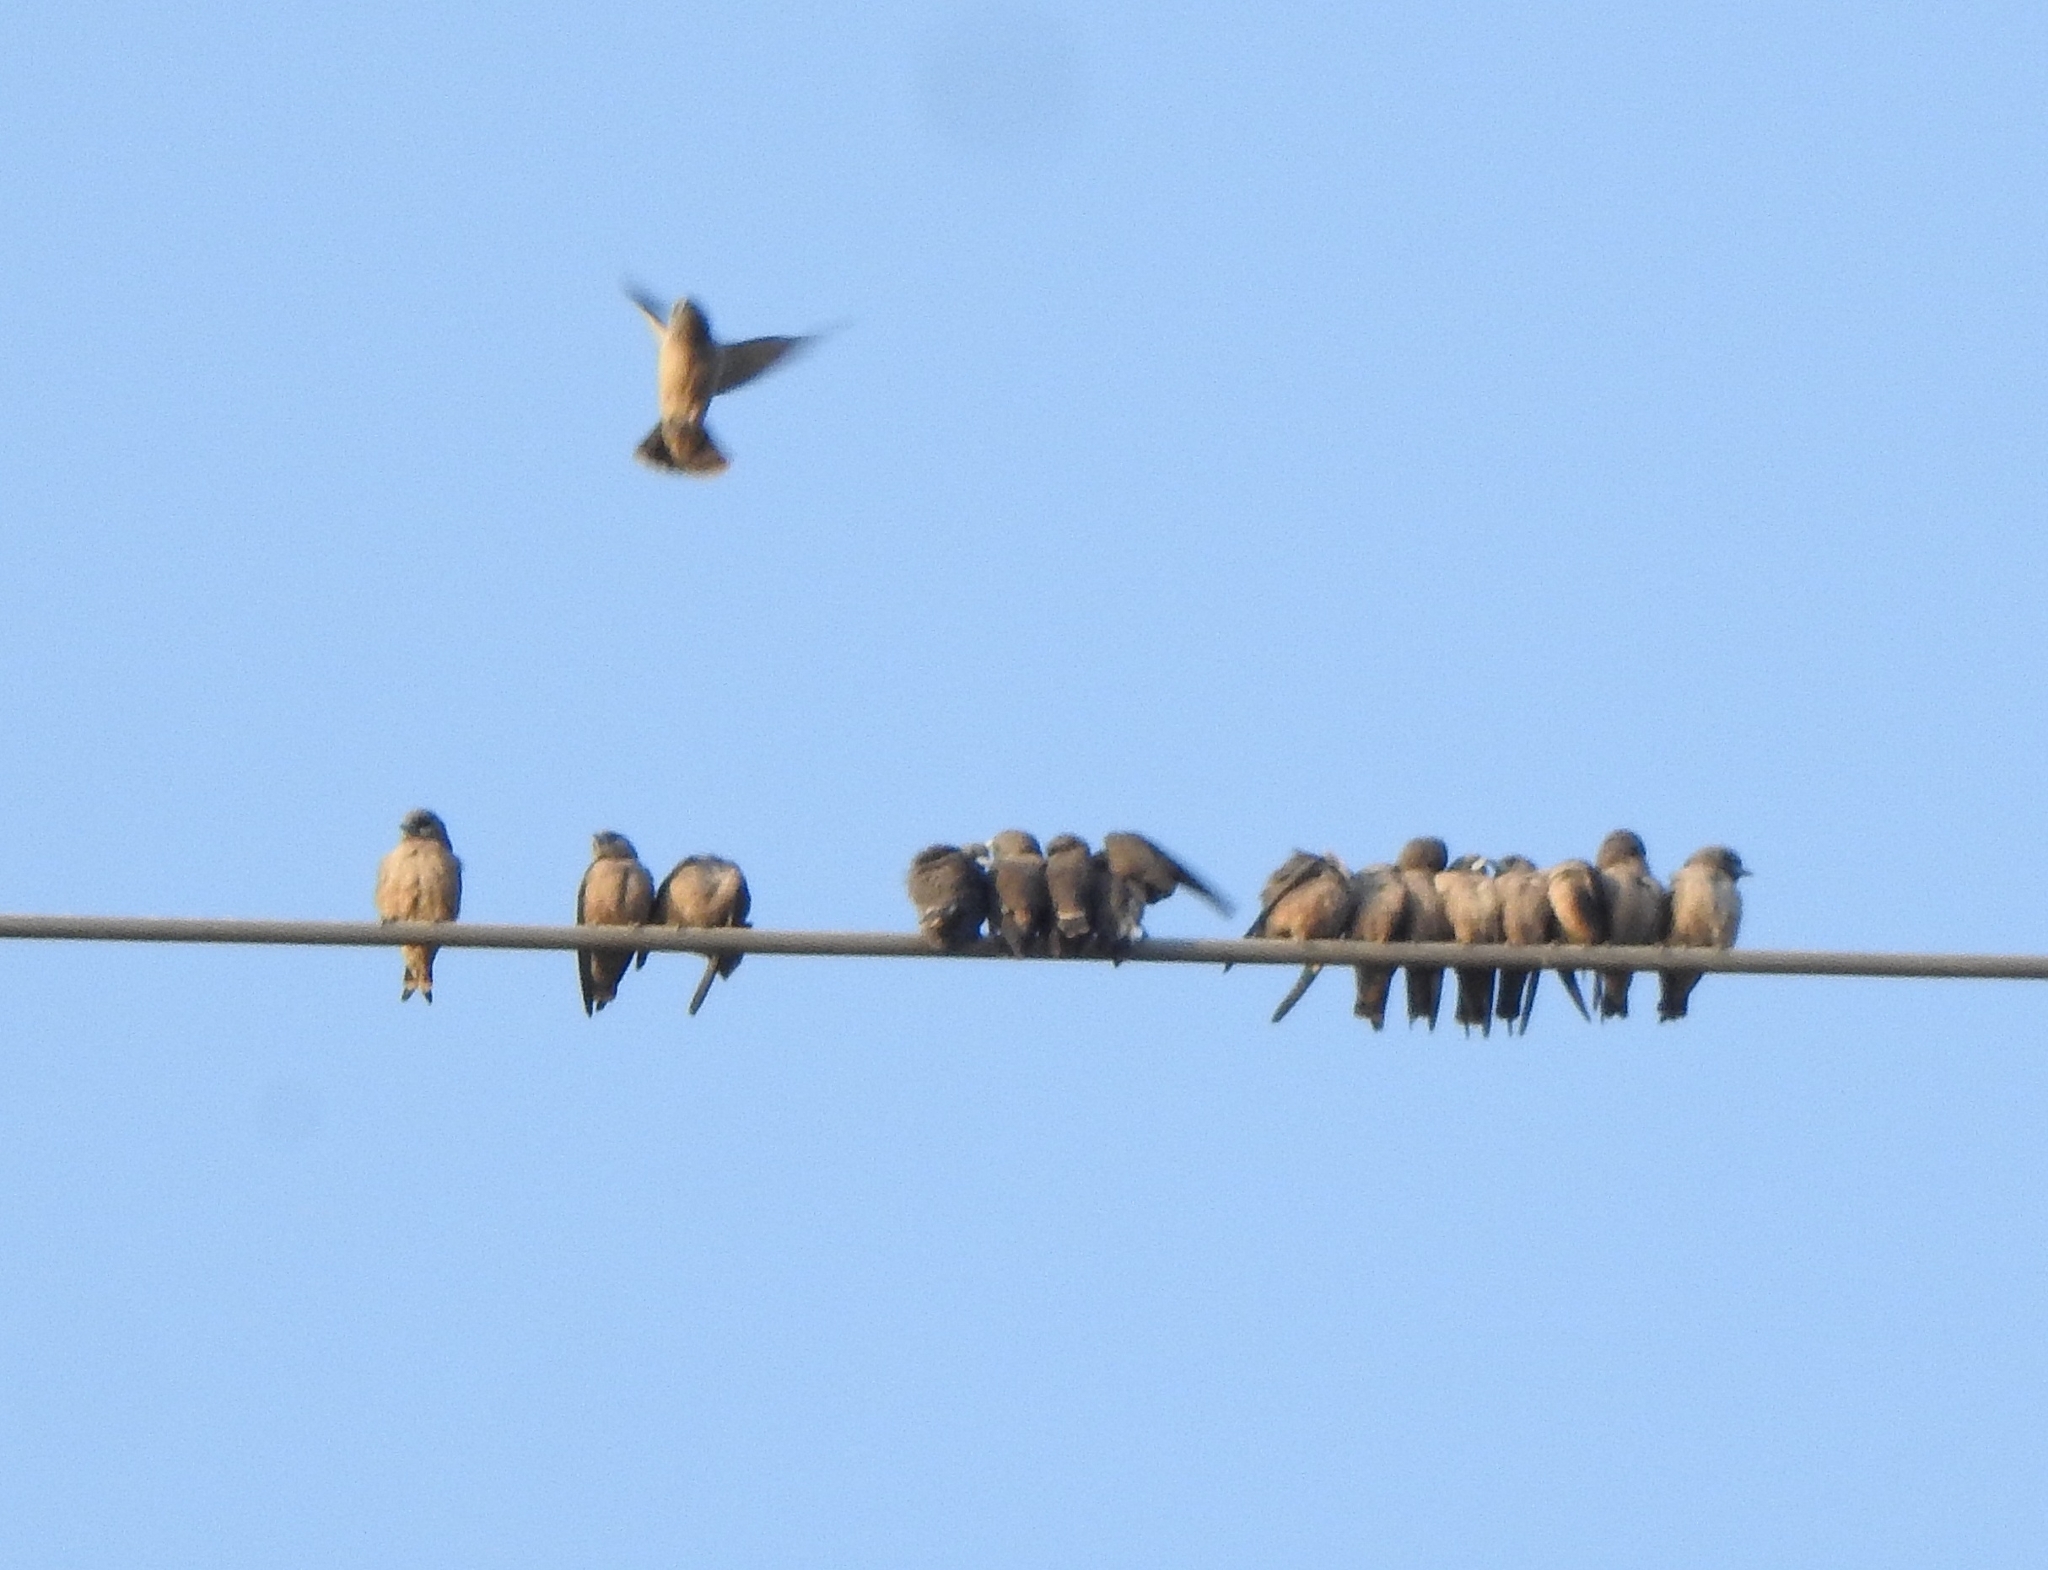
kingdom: Animalia
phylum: Chordata
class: Aves
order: Passeriformes
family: Artamidae
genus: Artamus
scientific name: Artamus fuscus
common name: Ashy woodswallow
